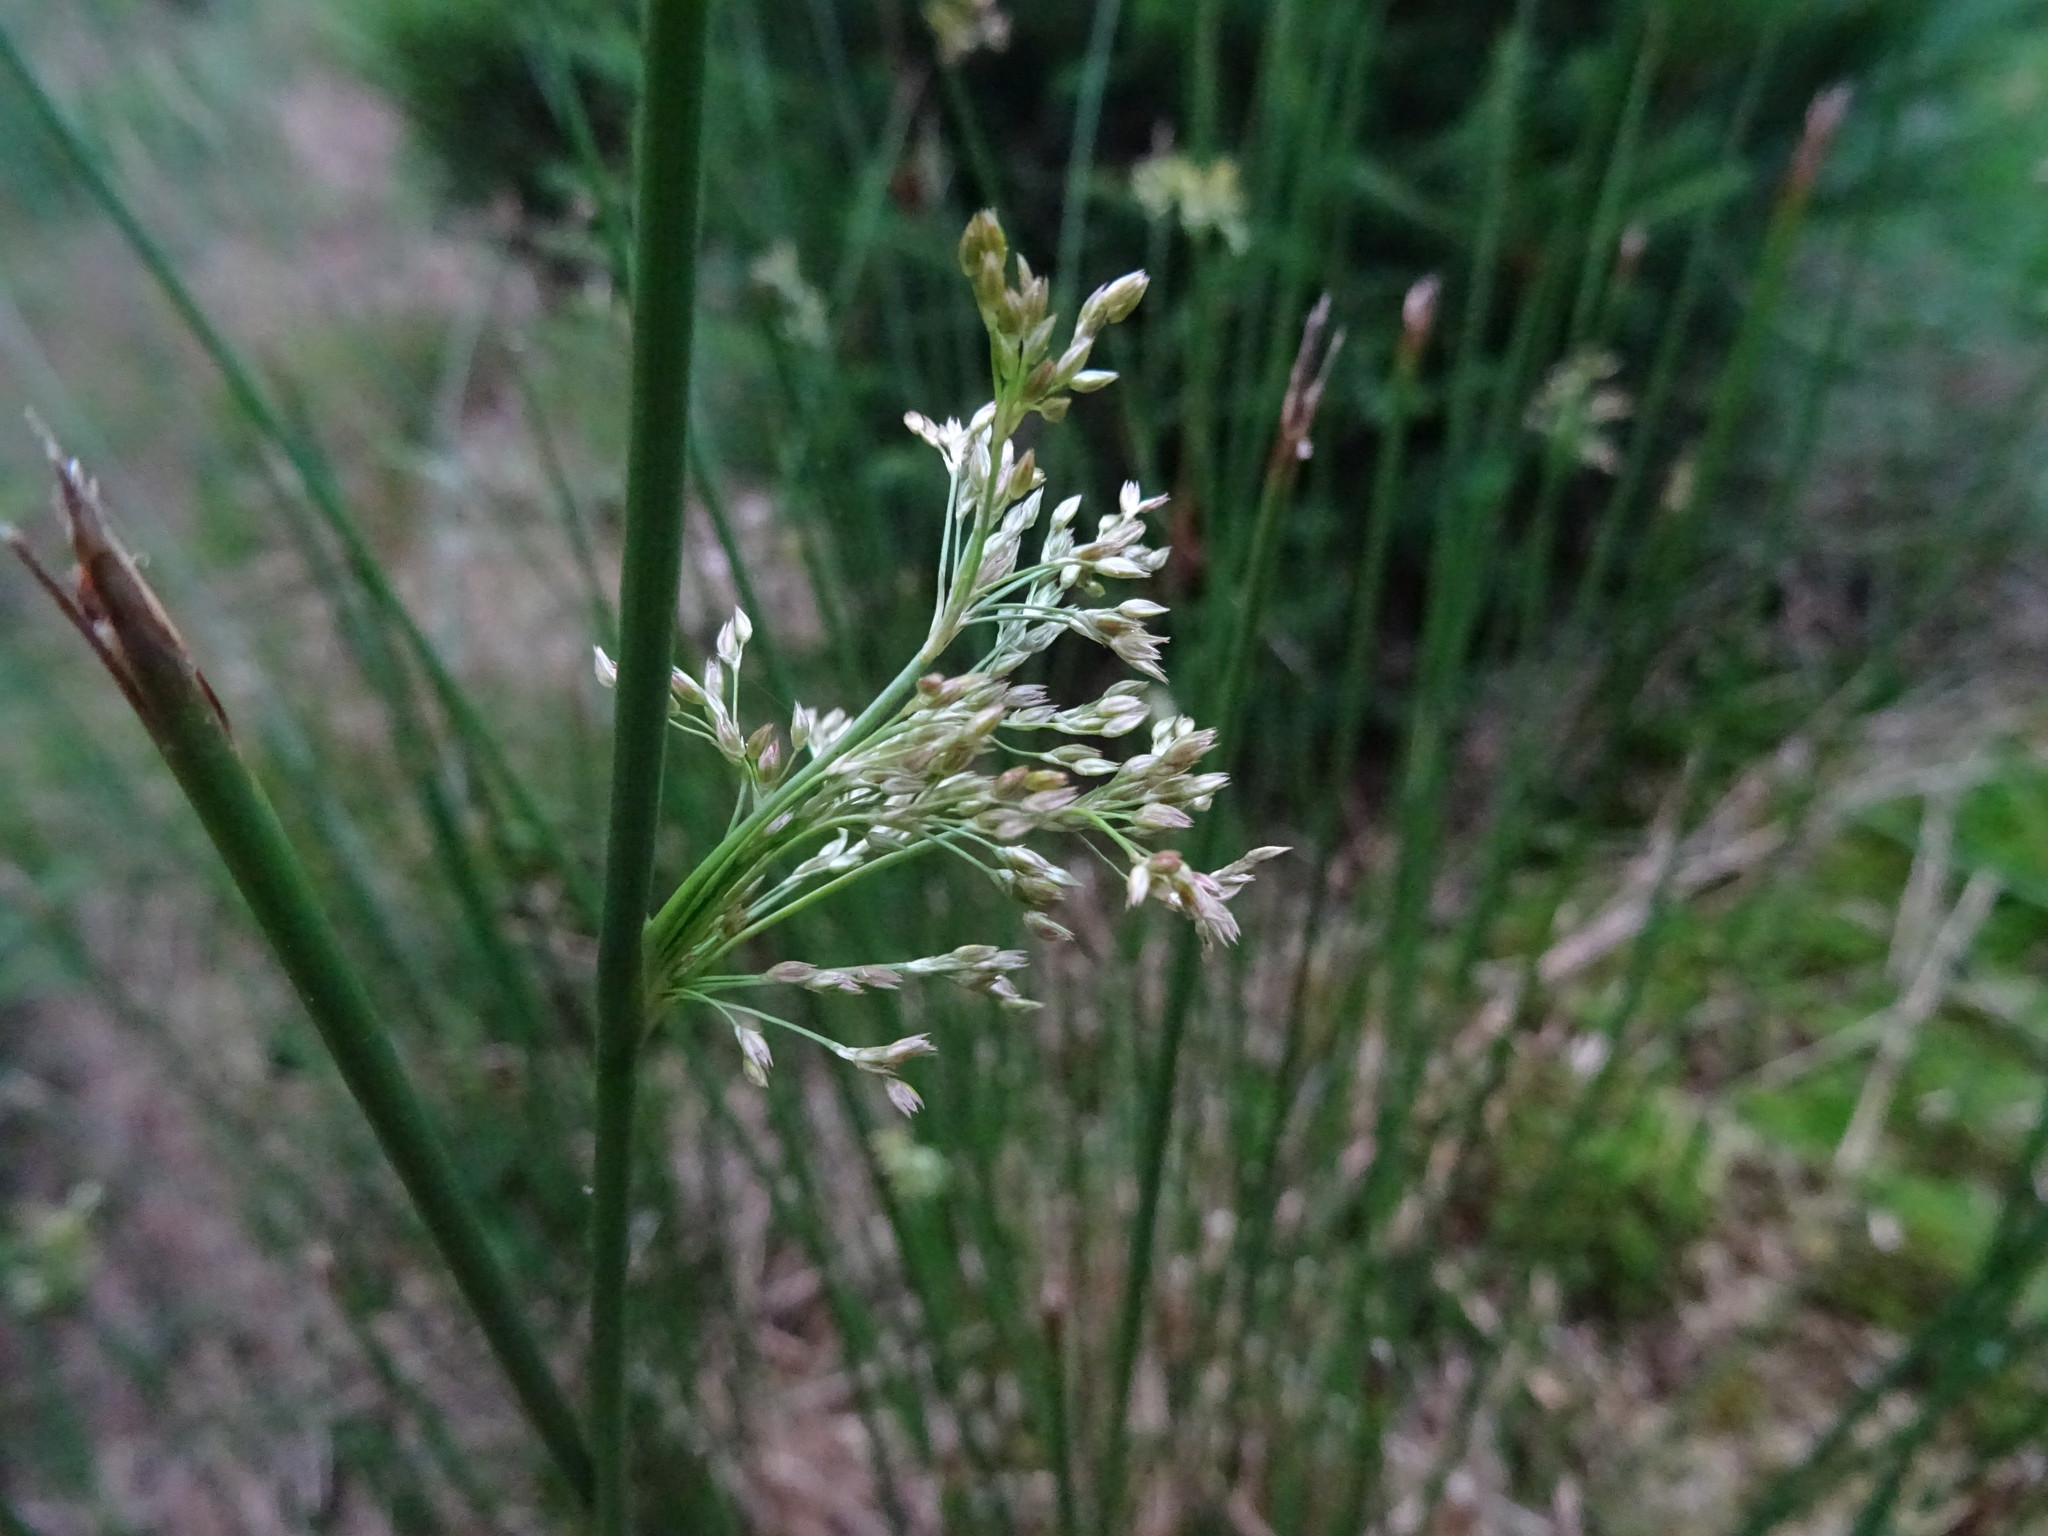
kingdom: Plantae
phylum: Tracheophyta
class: Liliopsida
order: Poales
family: Juncaceae
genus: Juncus
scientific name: Juncus effusus
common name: Soft rush
